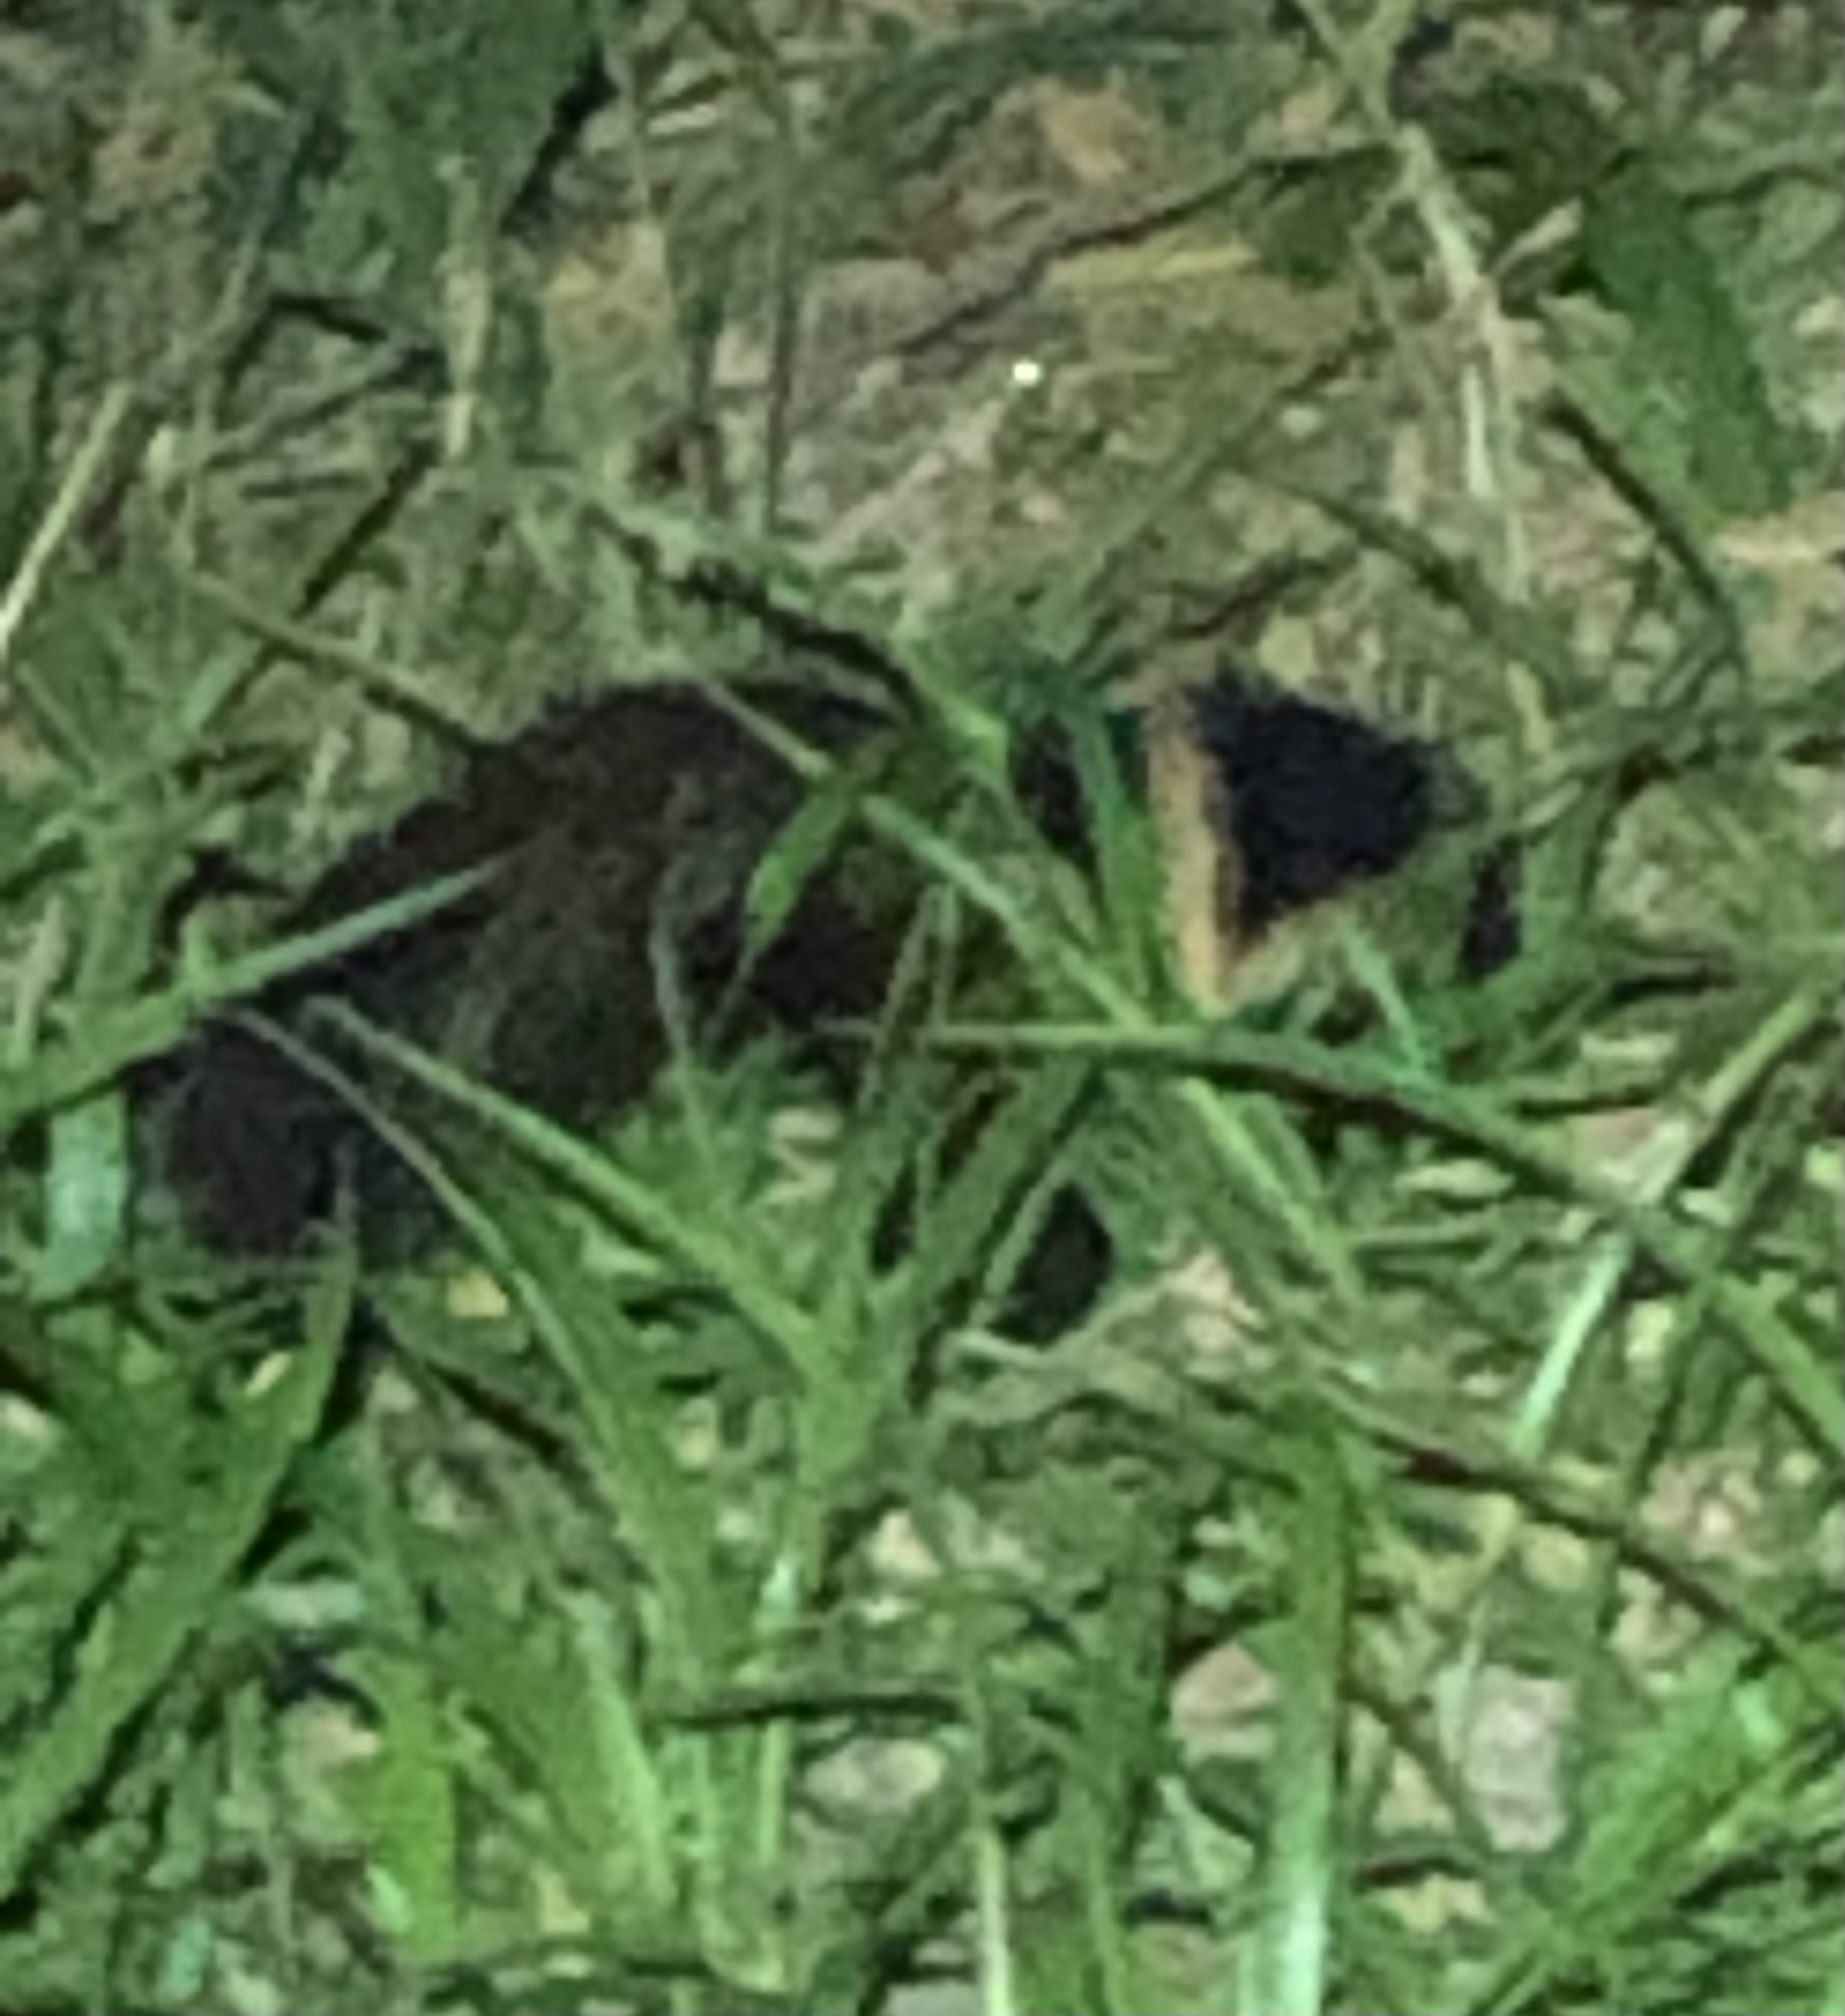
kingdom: Animalia
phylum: Chordata
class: Mammalia
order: Carnivora
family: Mephitidae
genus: Mephitis
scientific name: Mephitis mephitis
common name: Striped skunk
